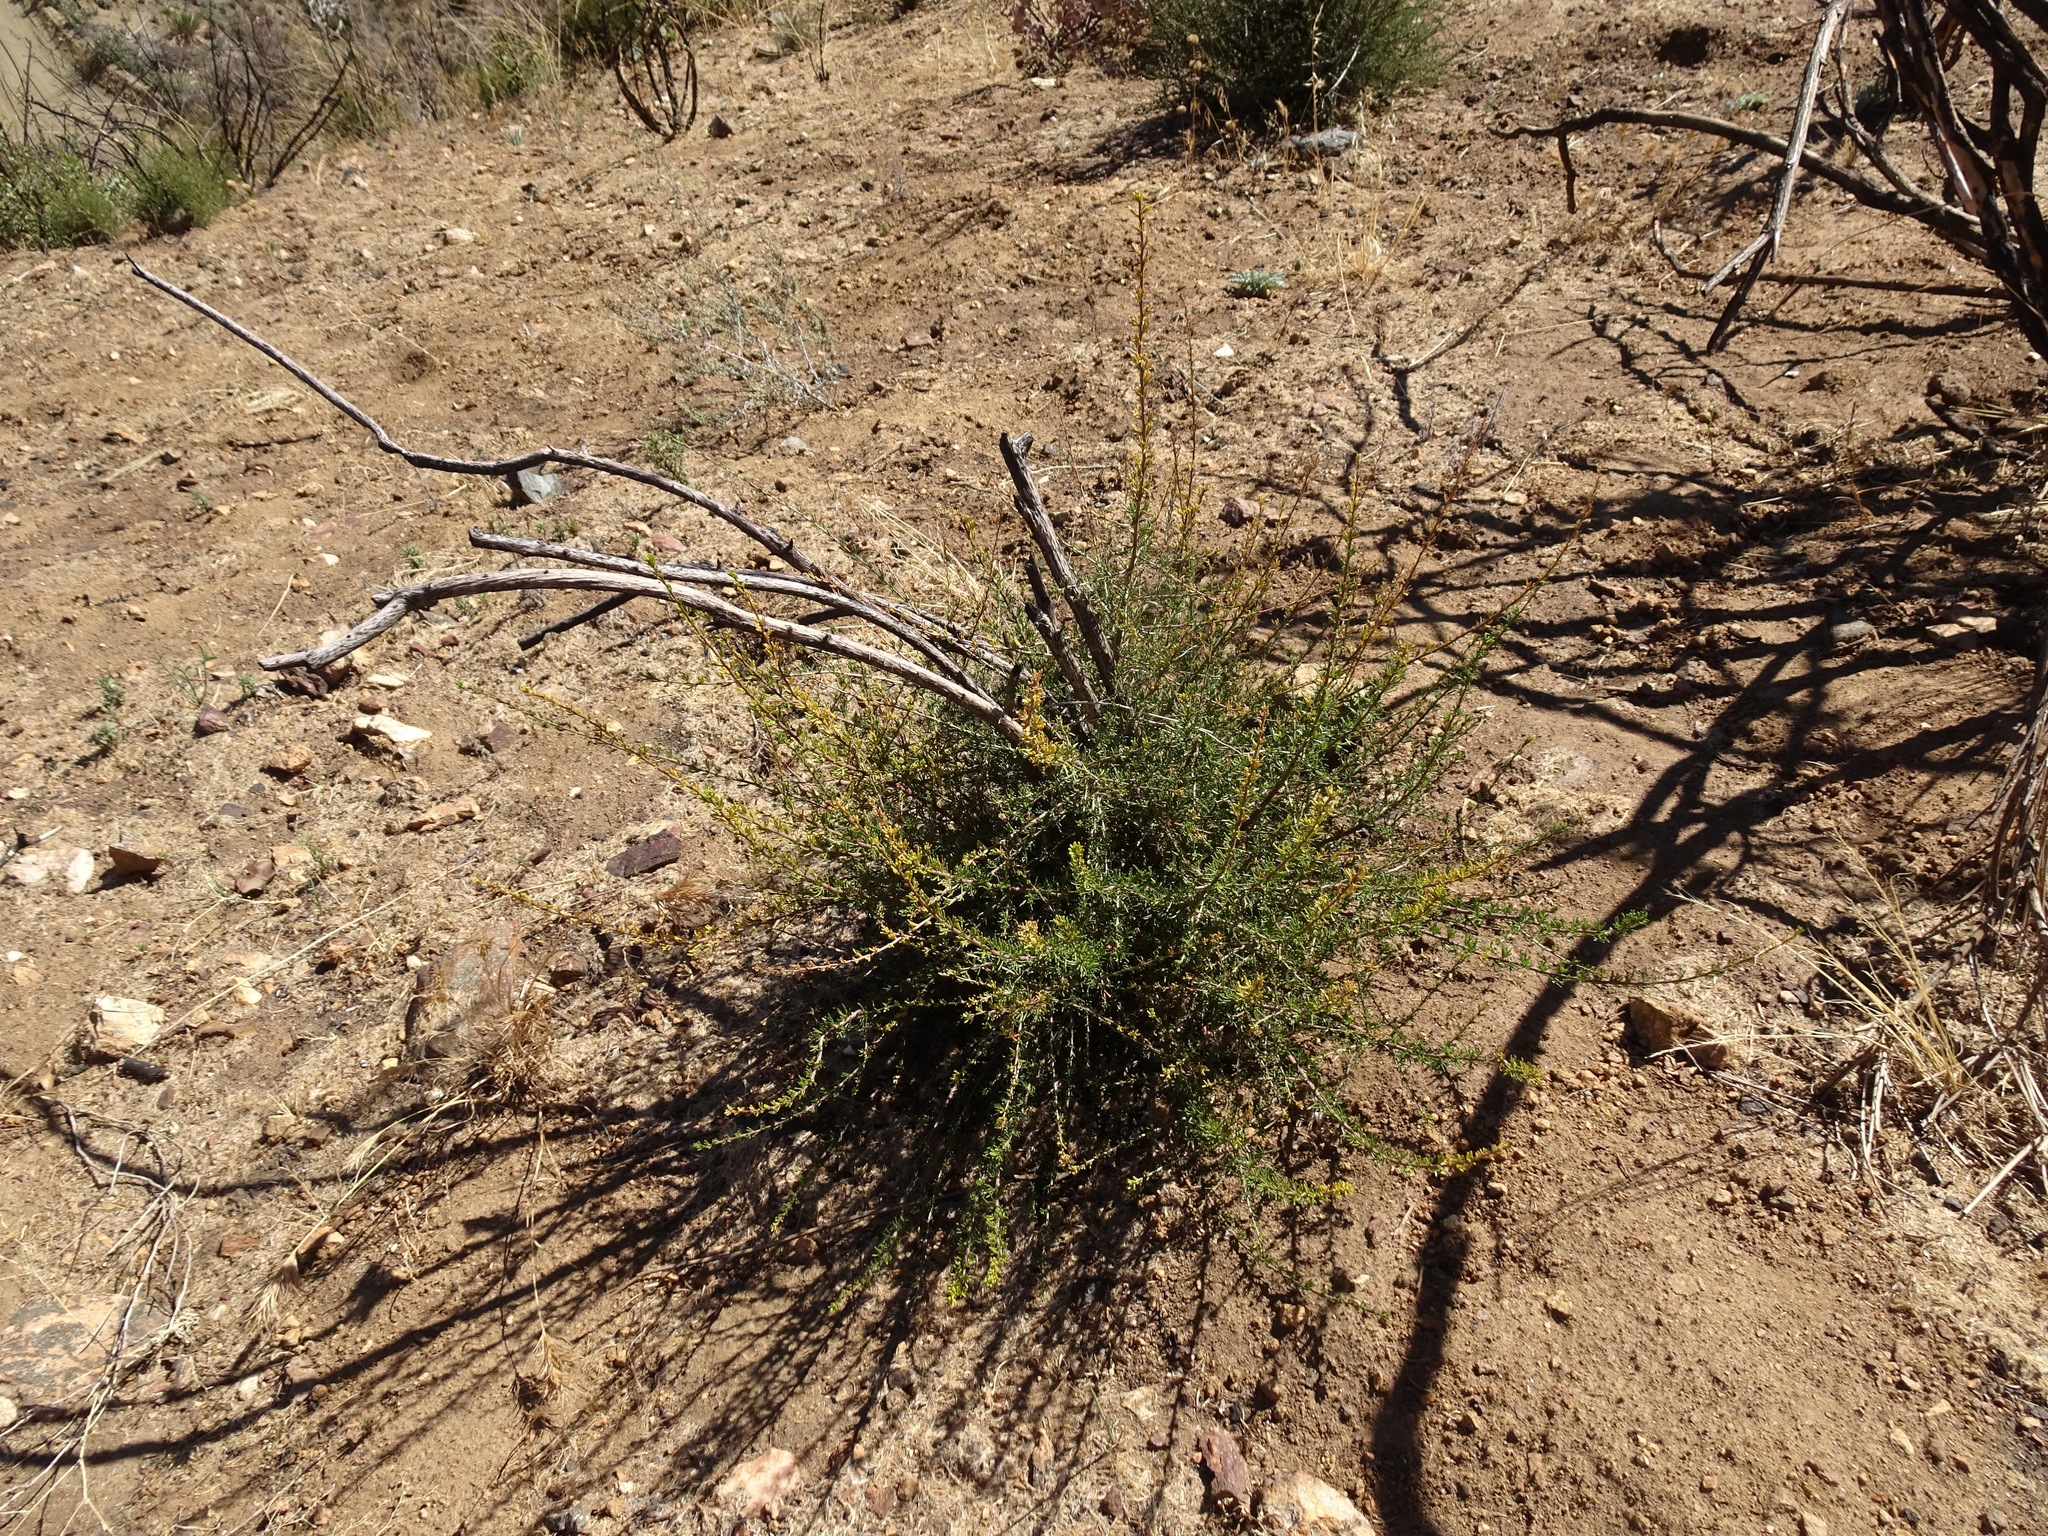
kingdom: Plantae
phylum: Tracheophyta
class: Magnoliopsida
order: Rosales
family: Rosaceae
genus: Adenostoma
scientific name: Adenostoma fasciculatum
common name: Chamise
